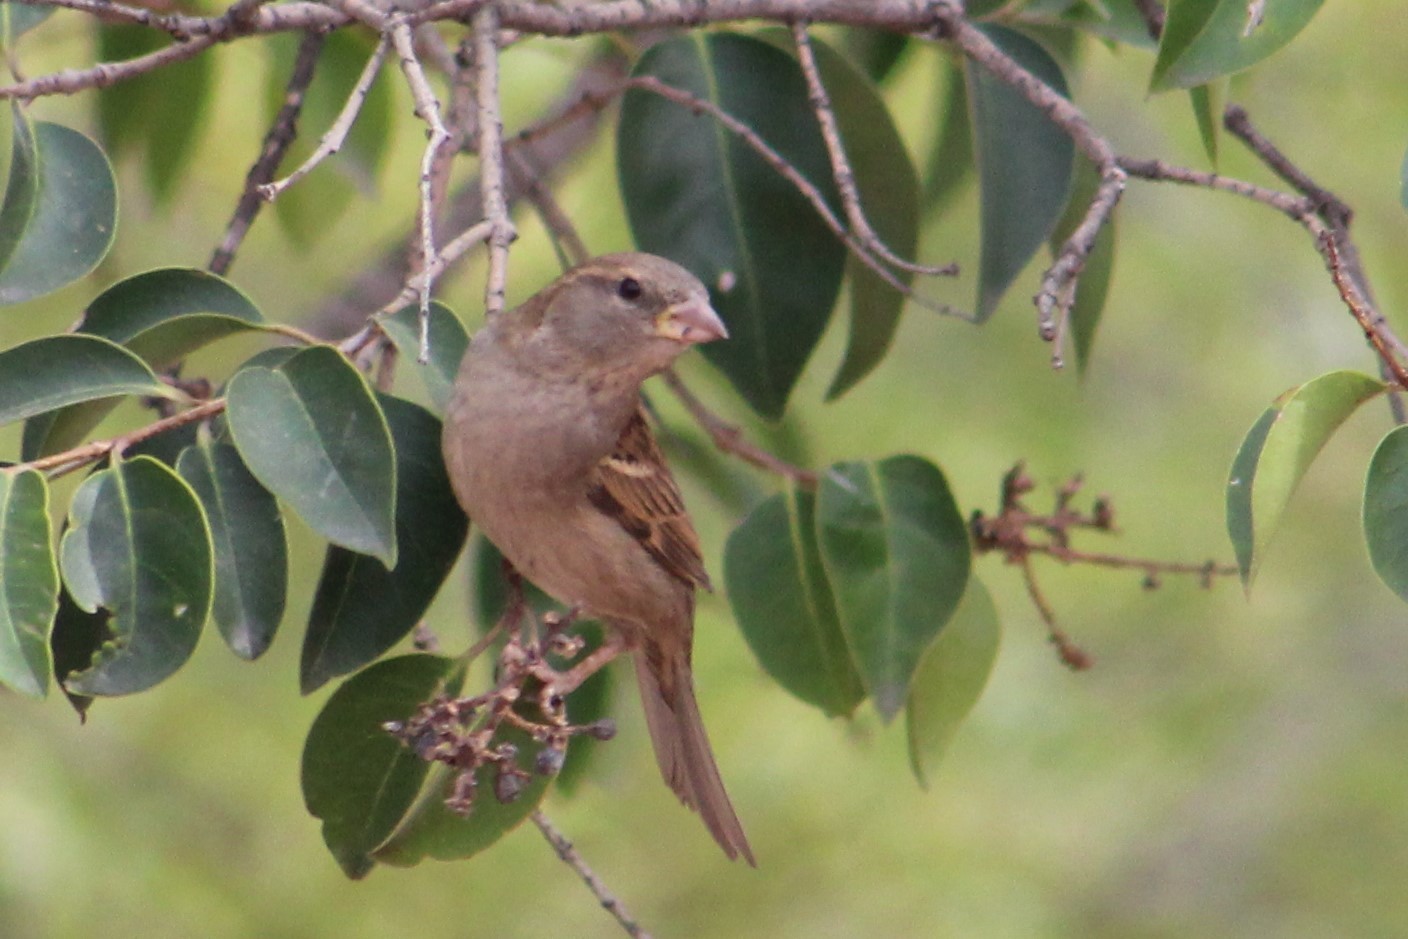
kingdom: Animalia
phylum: Chordata
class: Aves
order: Passeriformes
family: Passeridae
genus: Passer
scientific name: Passer domesticus
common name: House sparrow
